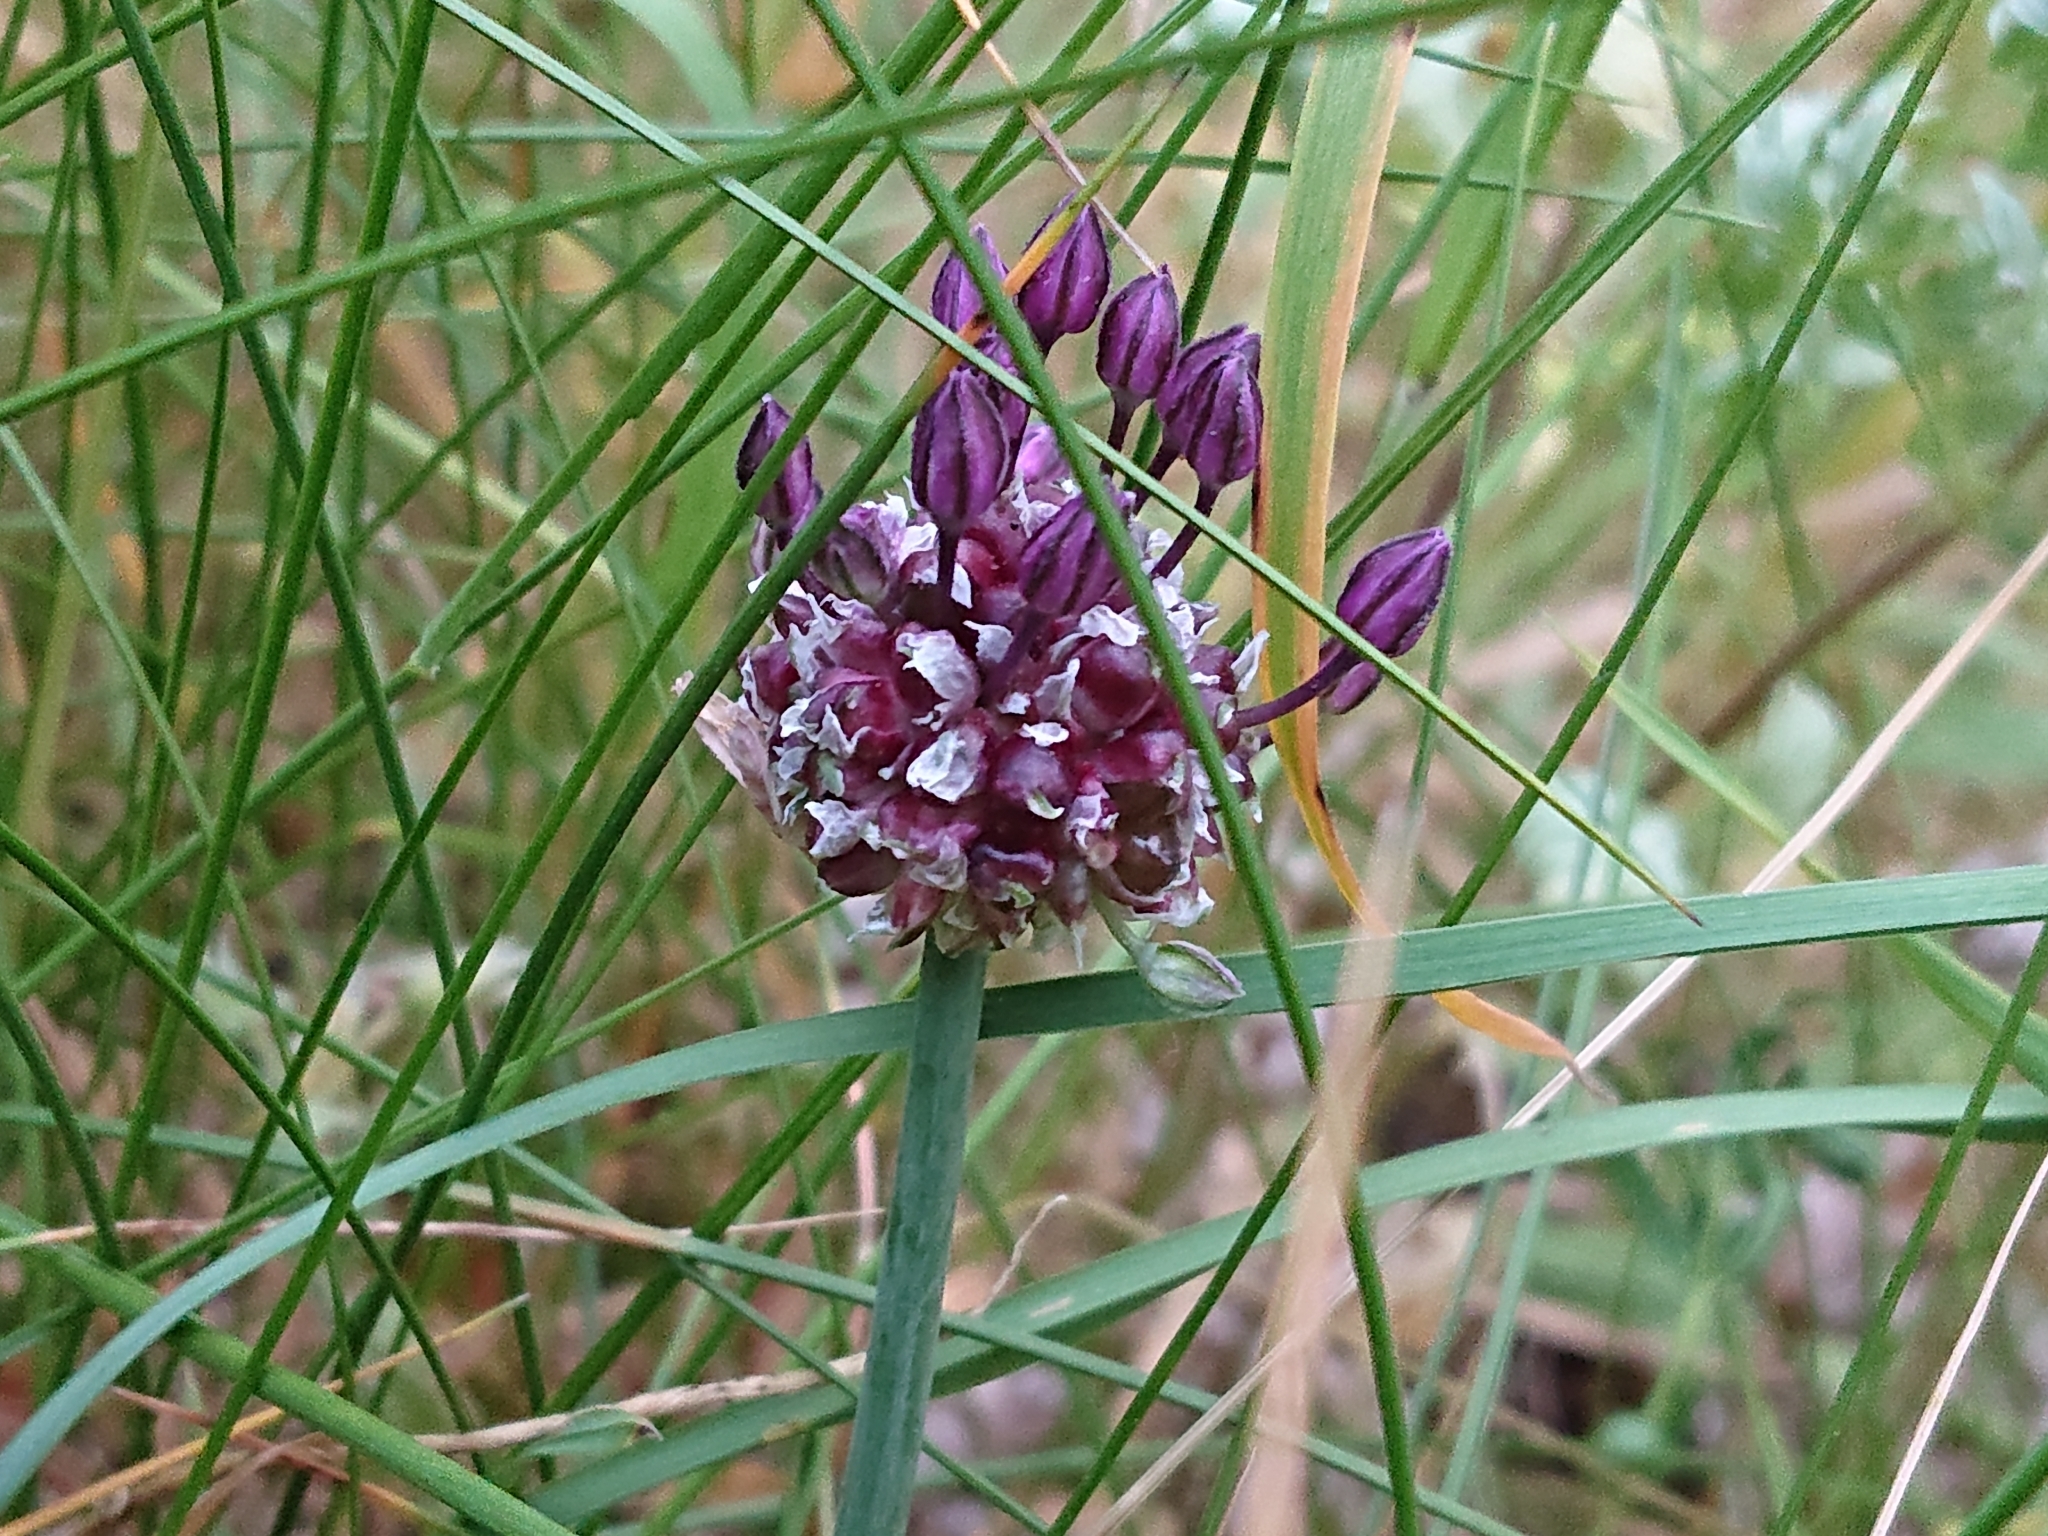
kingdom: Plantae
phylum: Tracheophyta
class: Liliopsida
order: Asparagales
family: Amaryllidaceae
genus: Allium
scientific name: Allium scorodoprasum
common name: Sand leek
